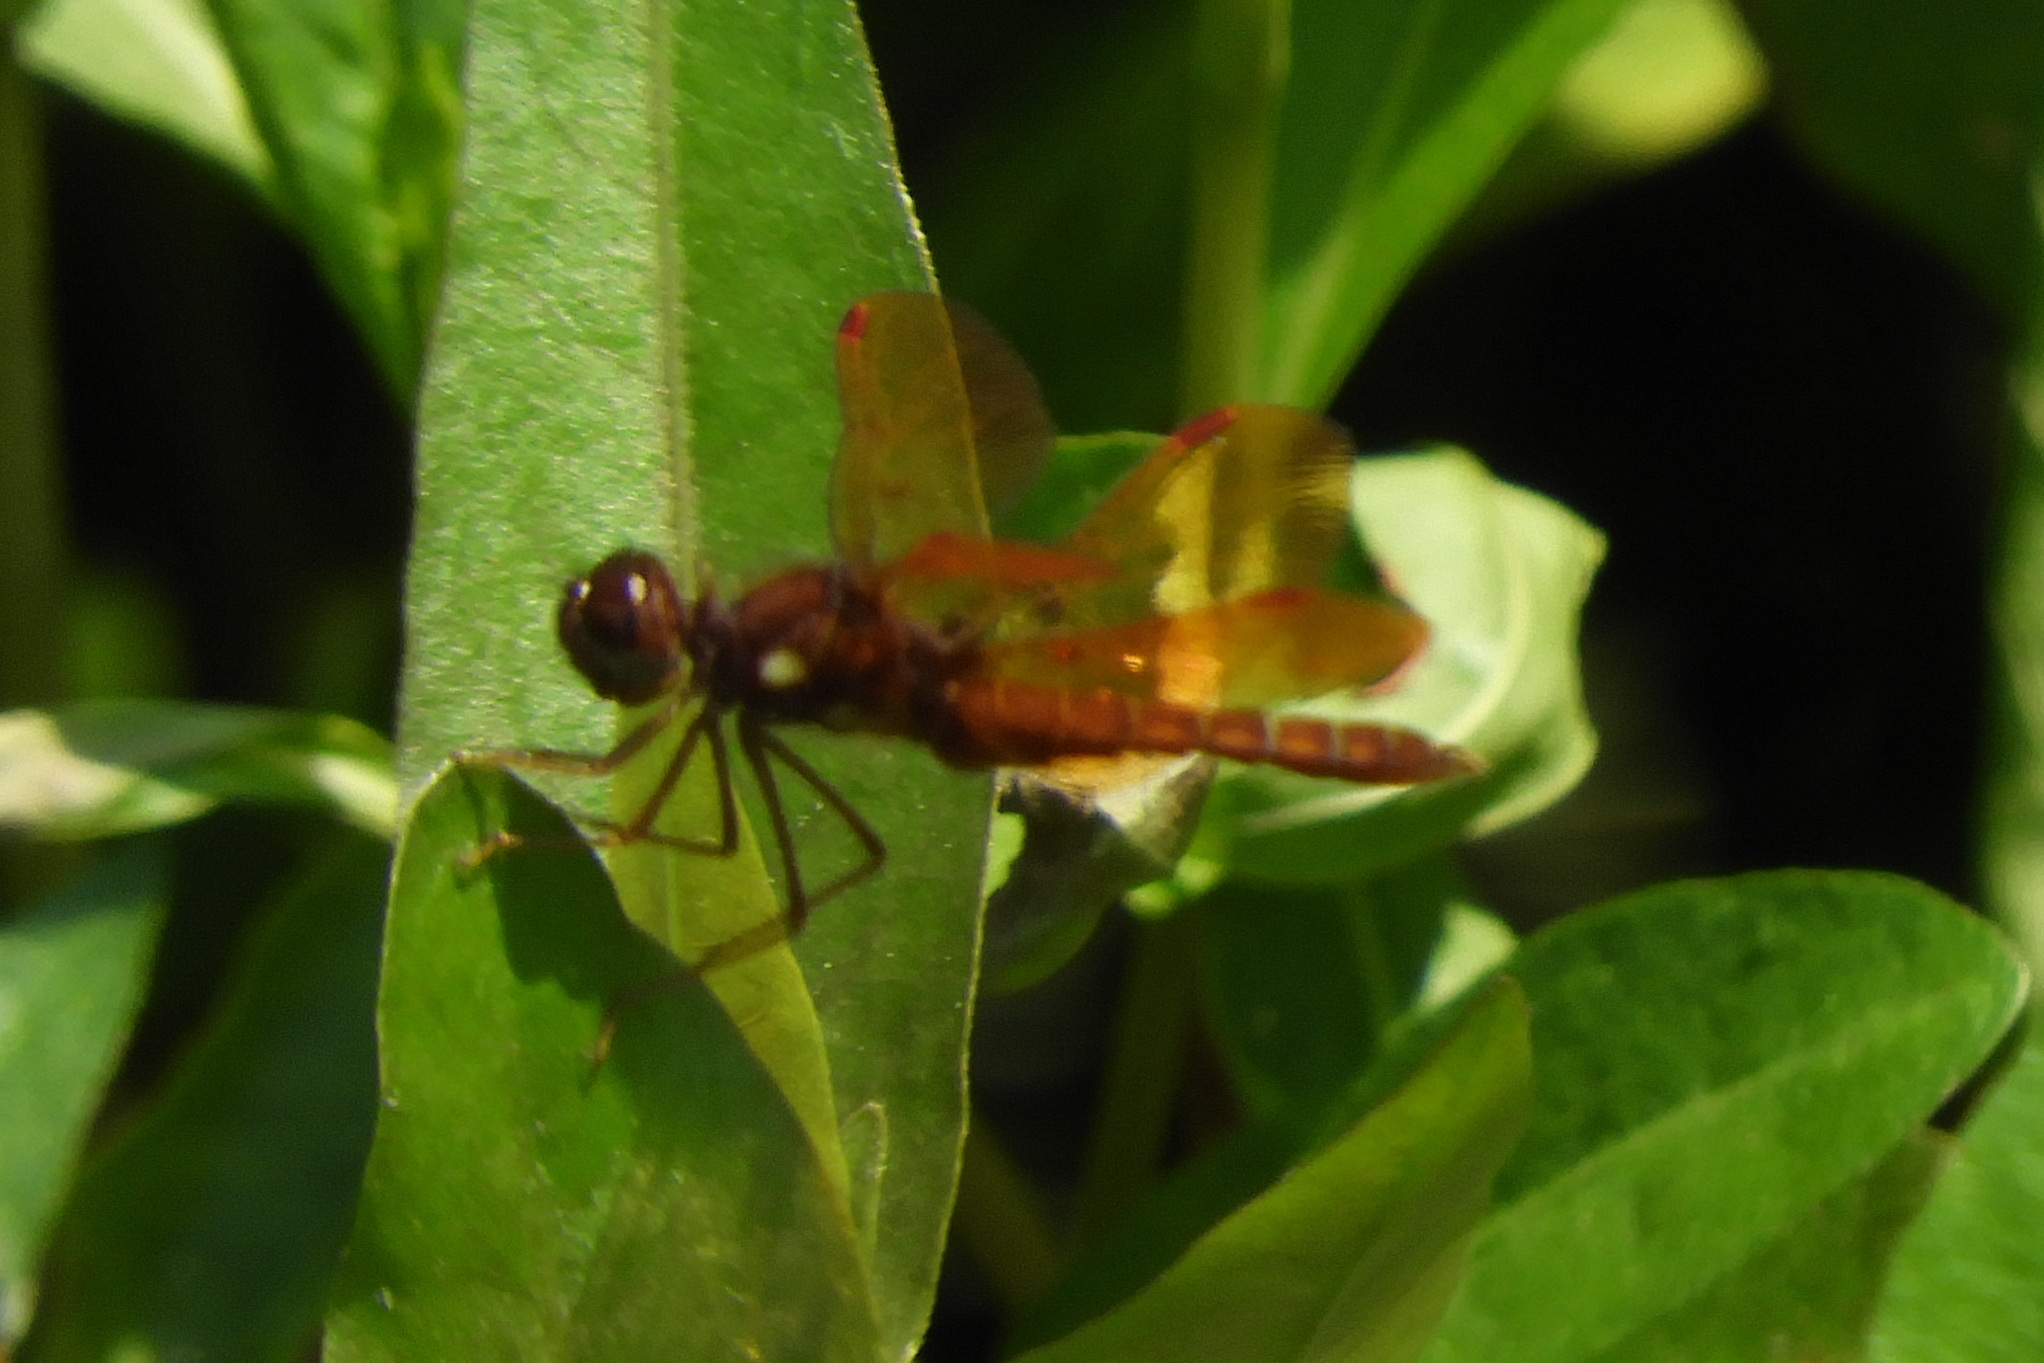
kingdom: Animalia
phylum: Arthropoda
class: Insecta
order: Odonata
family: Libellulidae
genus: Perithemis
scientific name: Perithemis tenera
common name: Eastern amberwing
